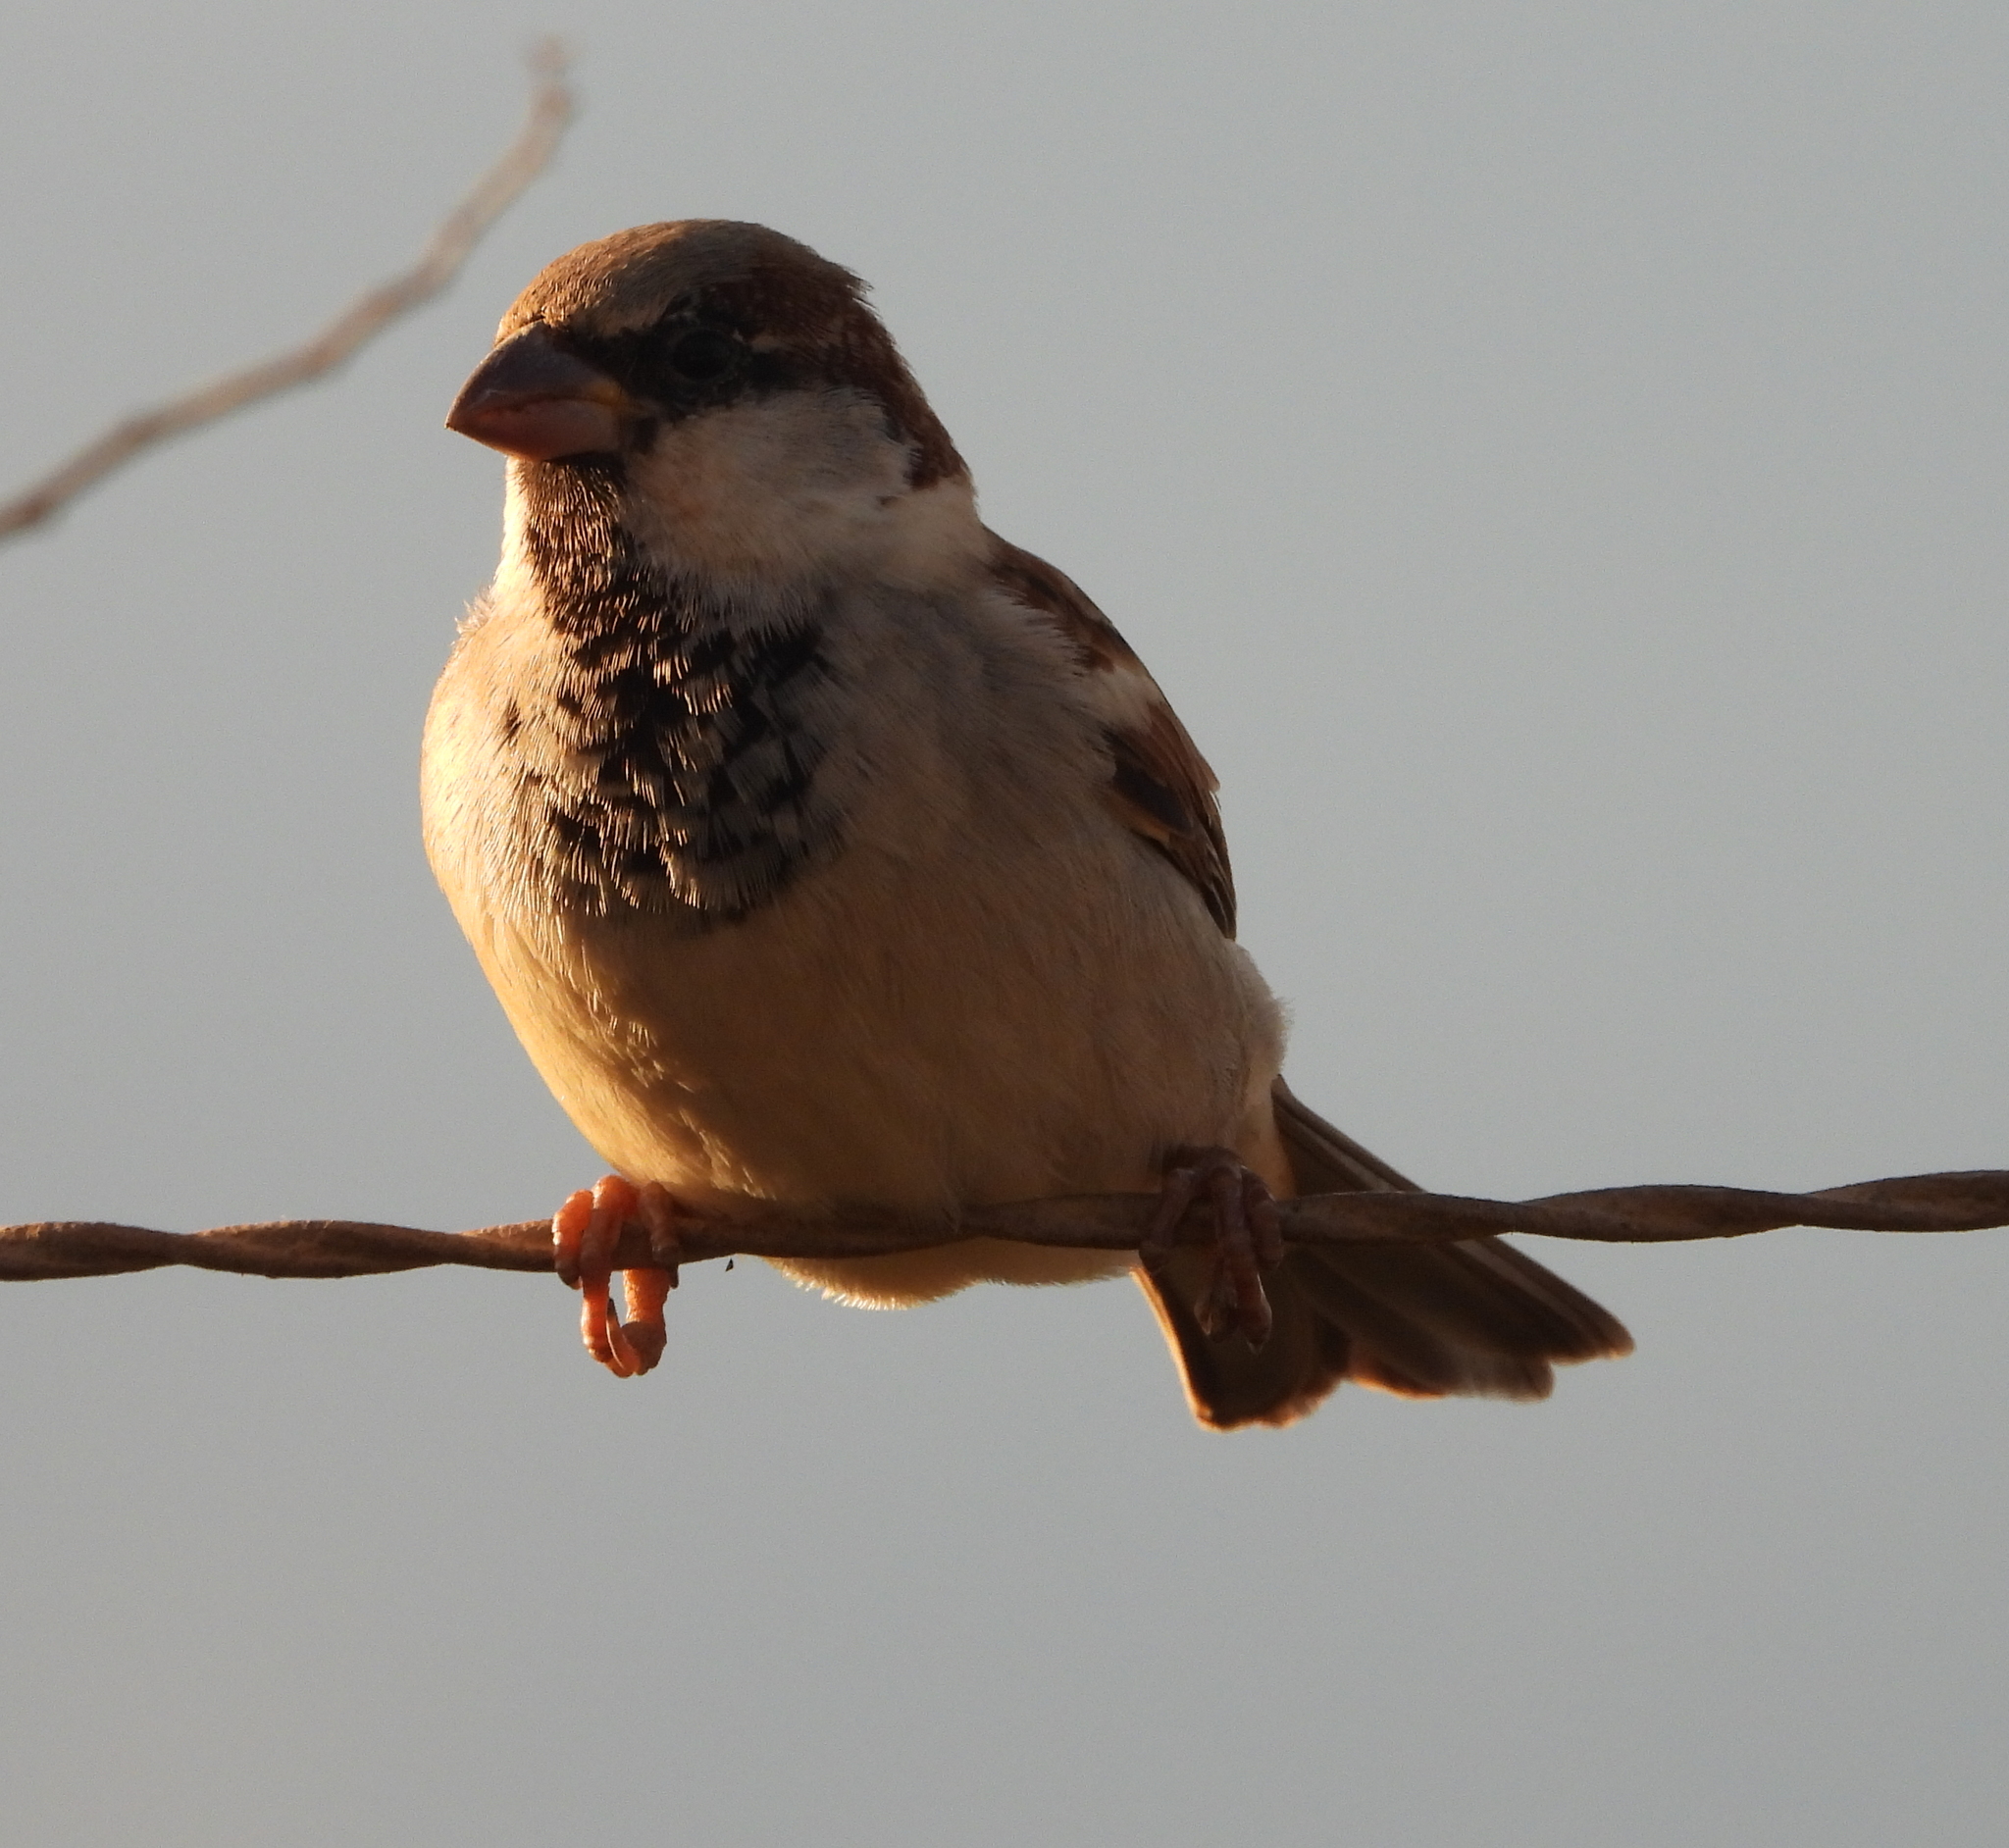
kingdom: Animalia
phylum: Chordata
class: Aves
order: Passeriformes
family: Passeridae
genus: Passer
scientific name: Passer domesticus
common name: House sparrow
